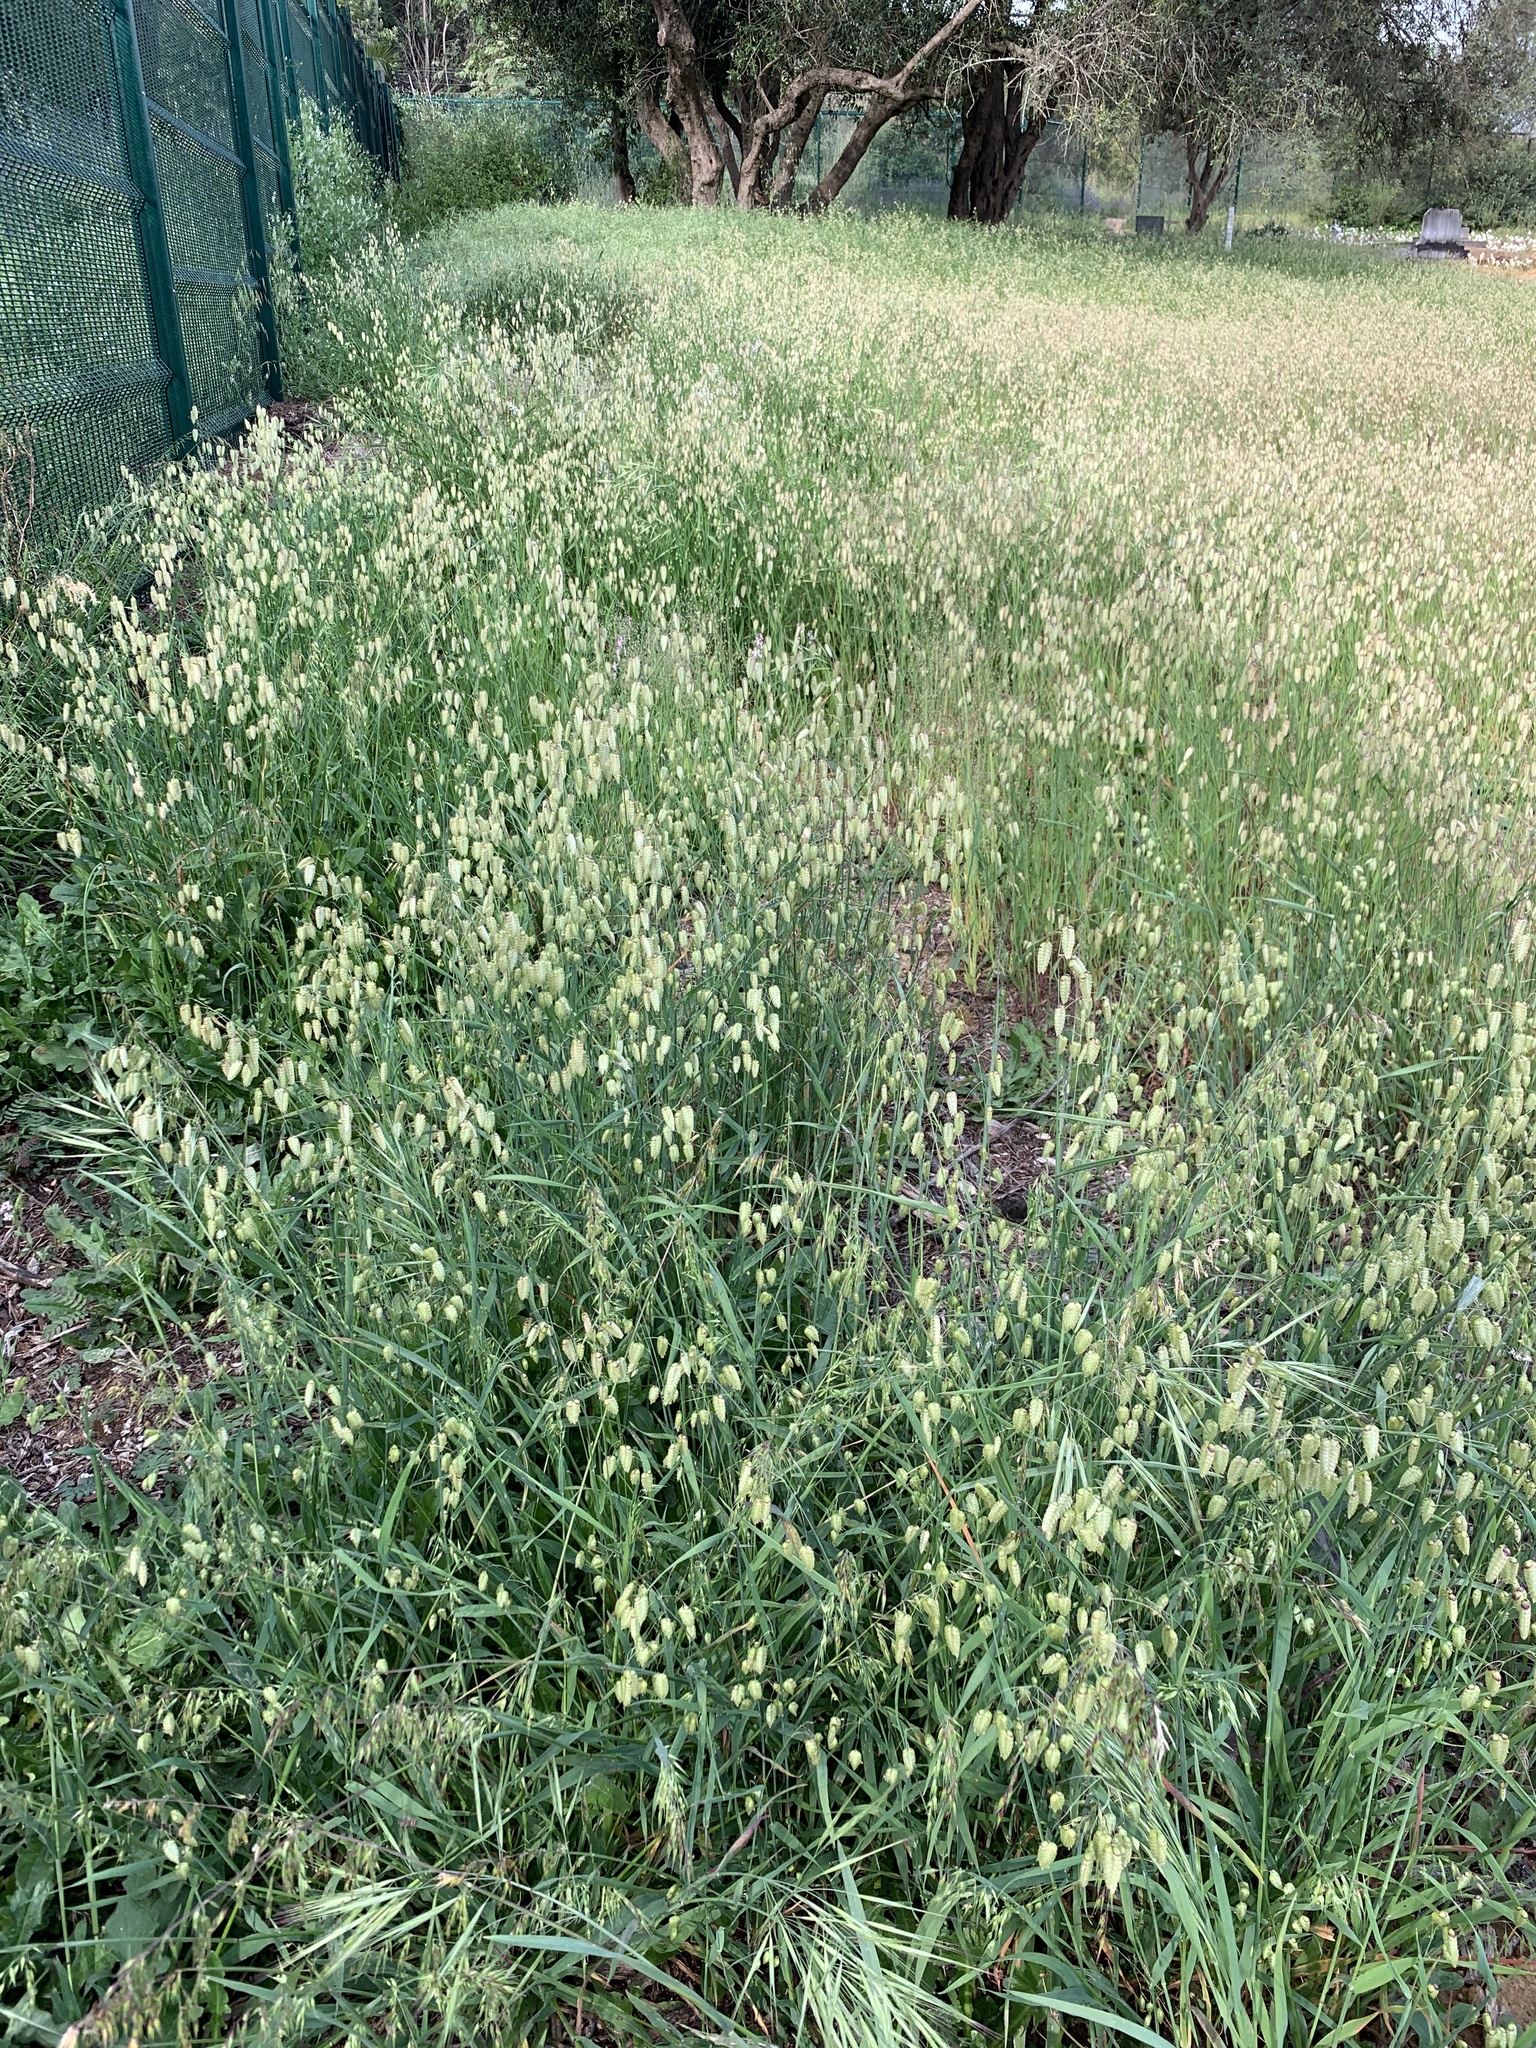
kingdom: Plantae
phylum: Tracheophyta
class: Liliopsida
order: Poales
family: Poaceae
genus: Briza
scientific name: Briza maxima
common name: Big quakinggrass
